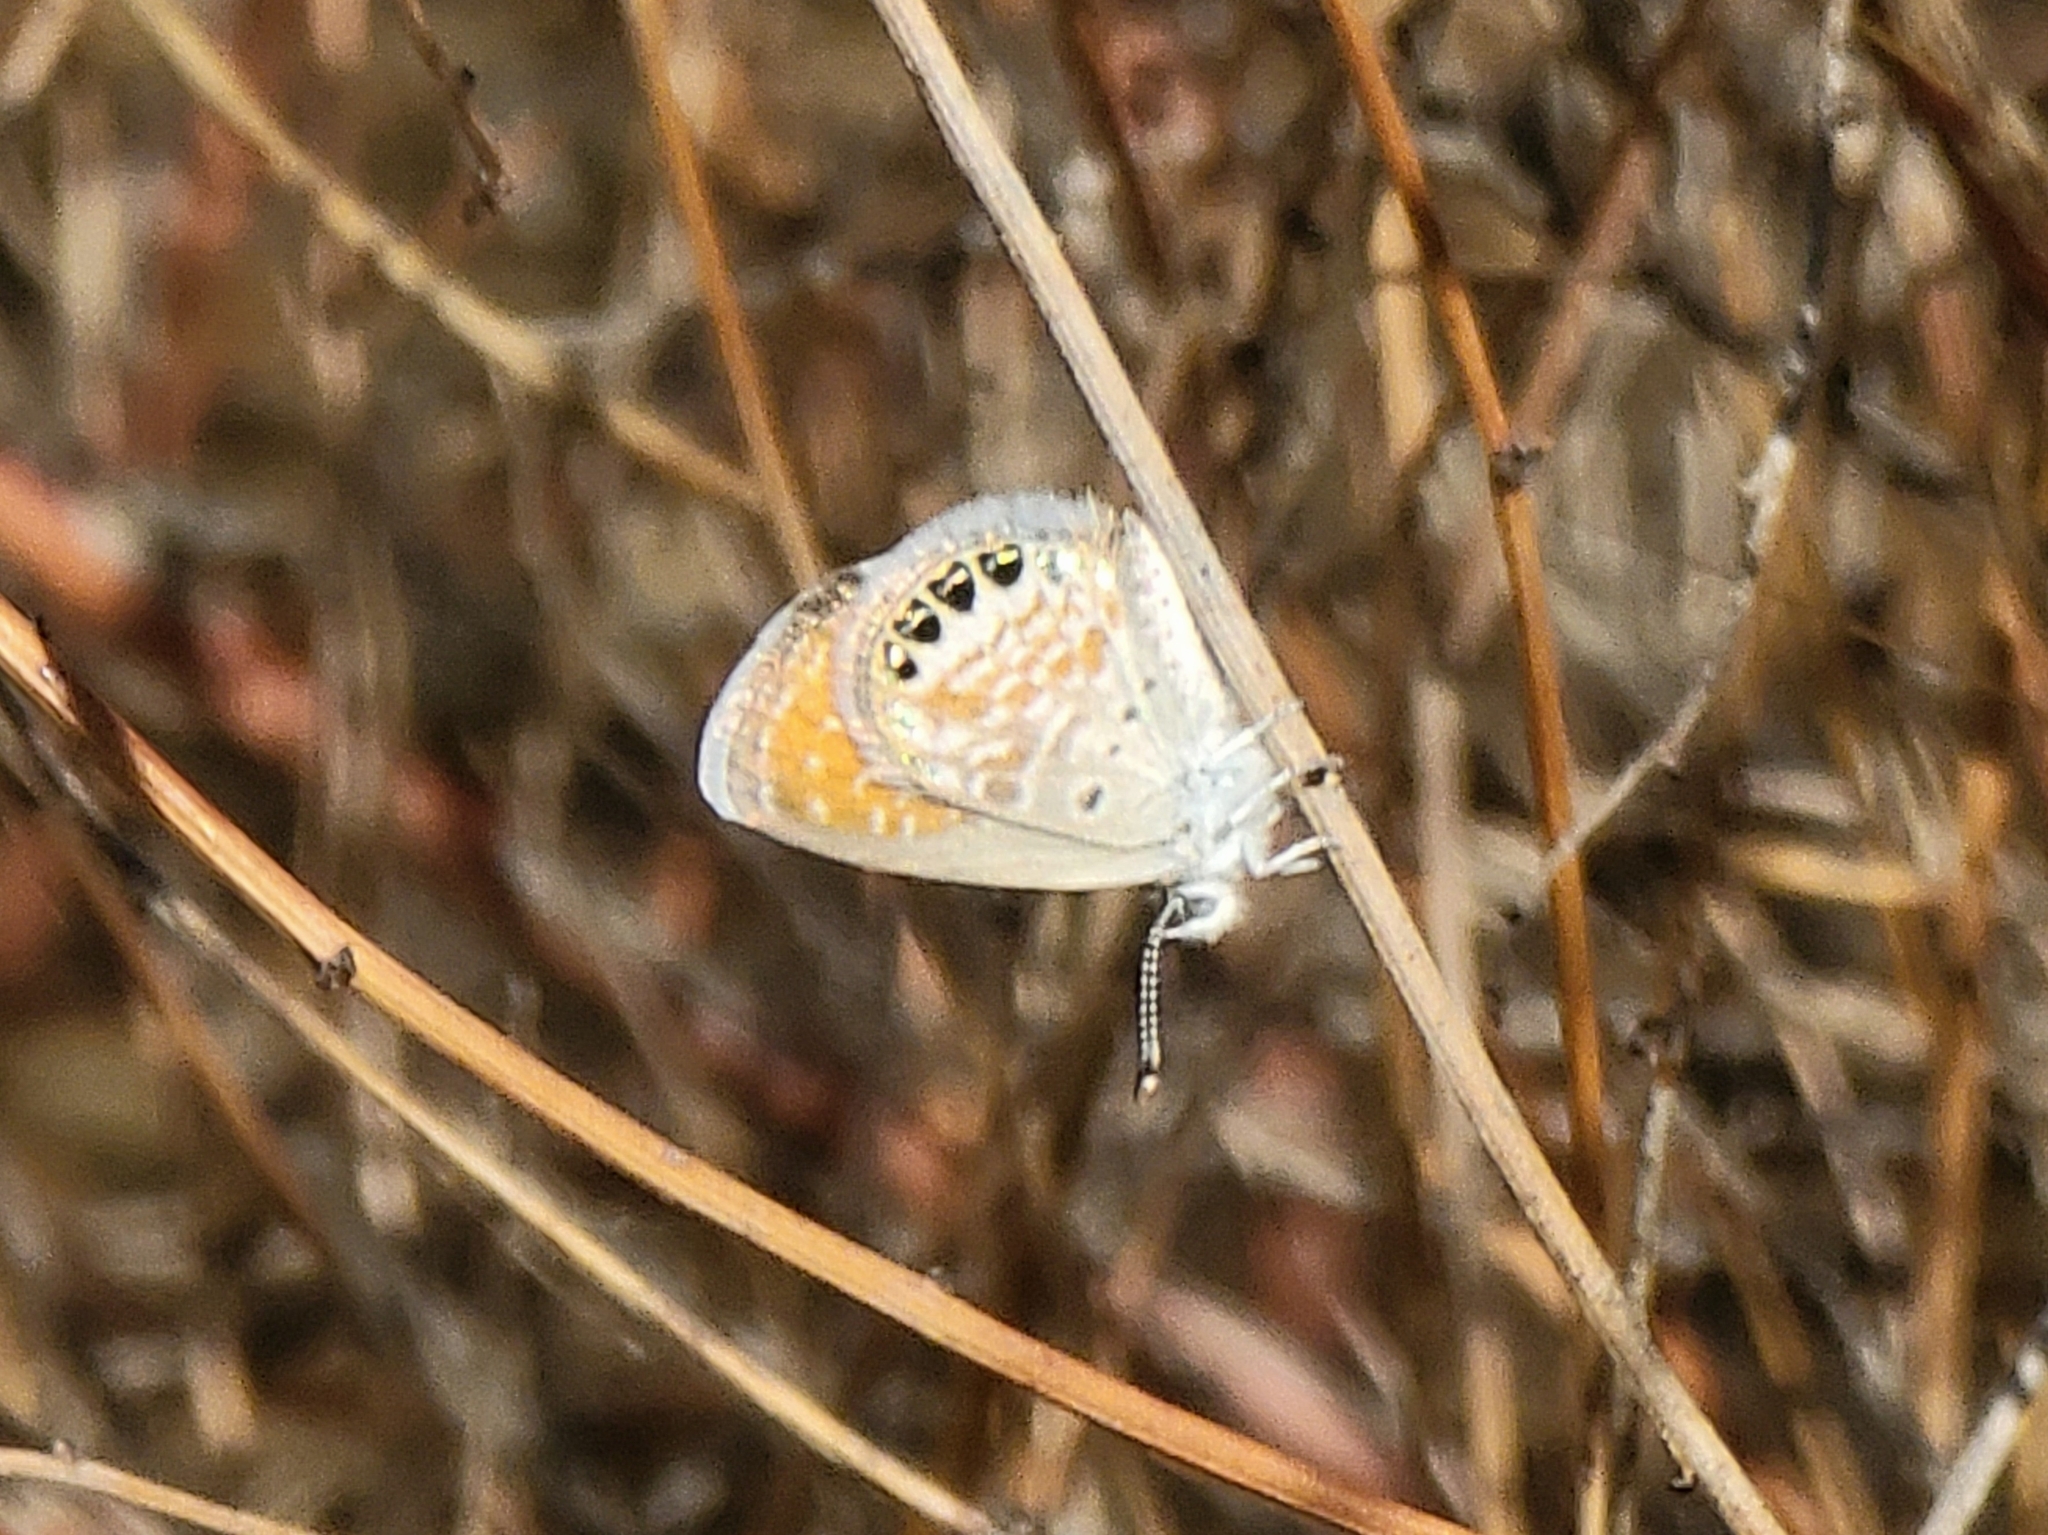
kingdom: Animalia
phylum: Arthropoda
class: Insecta
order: Lepidoptera
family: Lycaenidae
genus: Brephidium
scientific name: Brephidium exilis
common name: Pygmy blue
